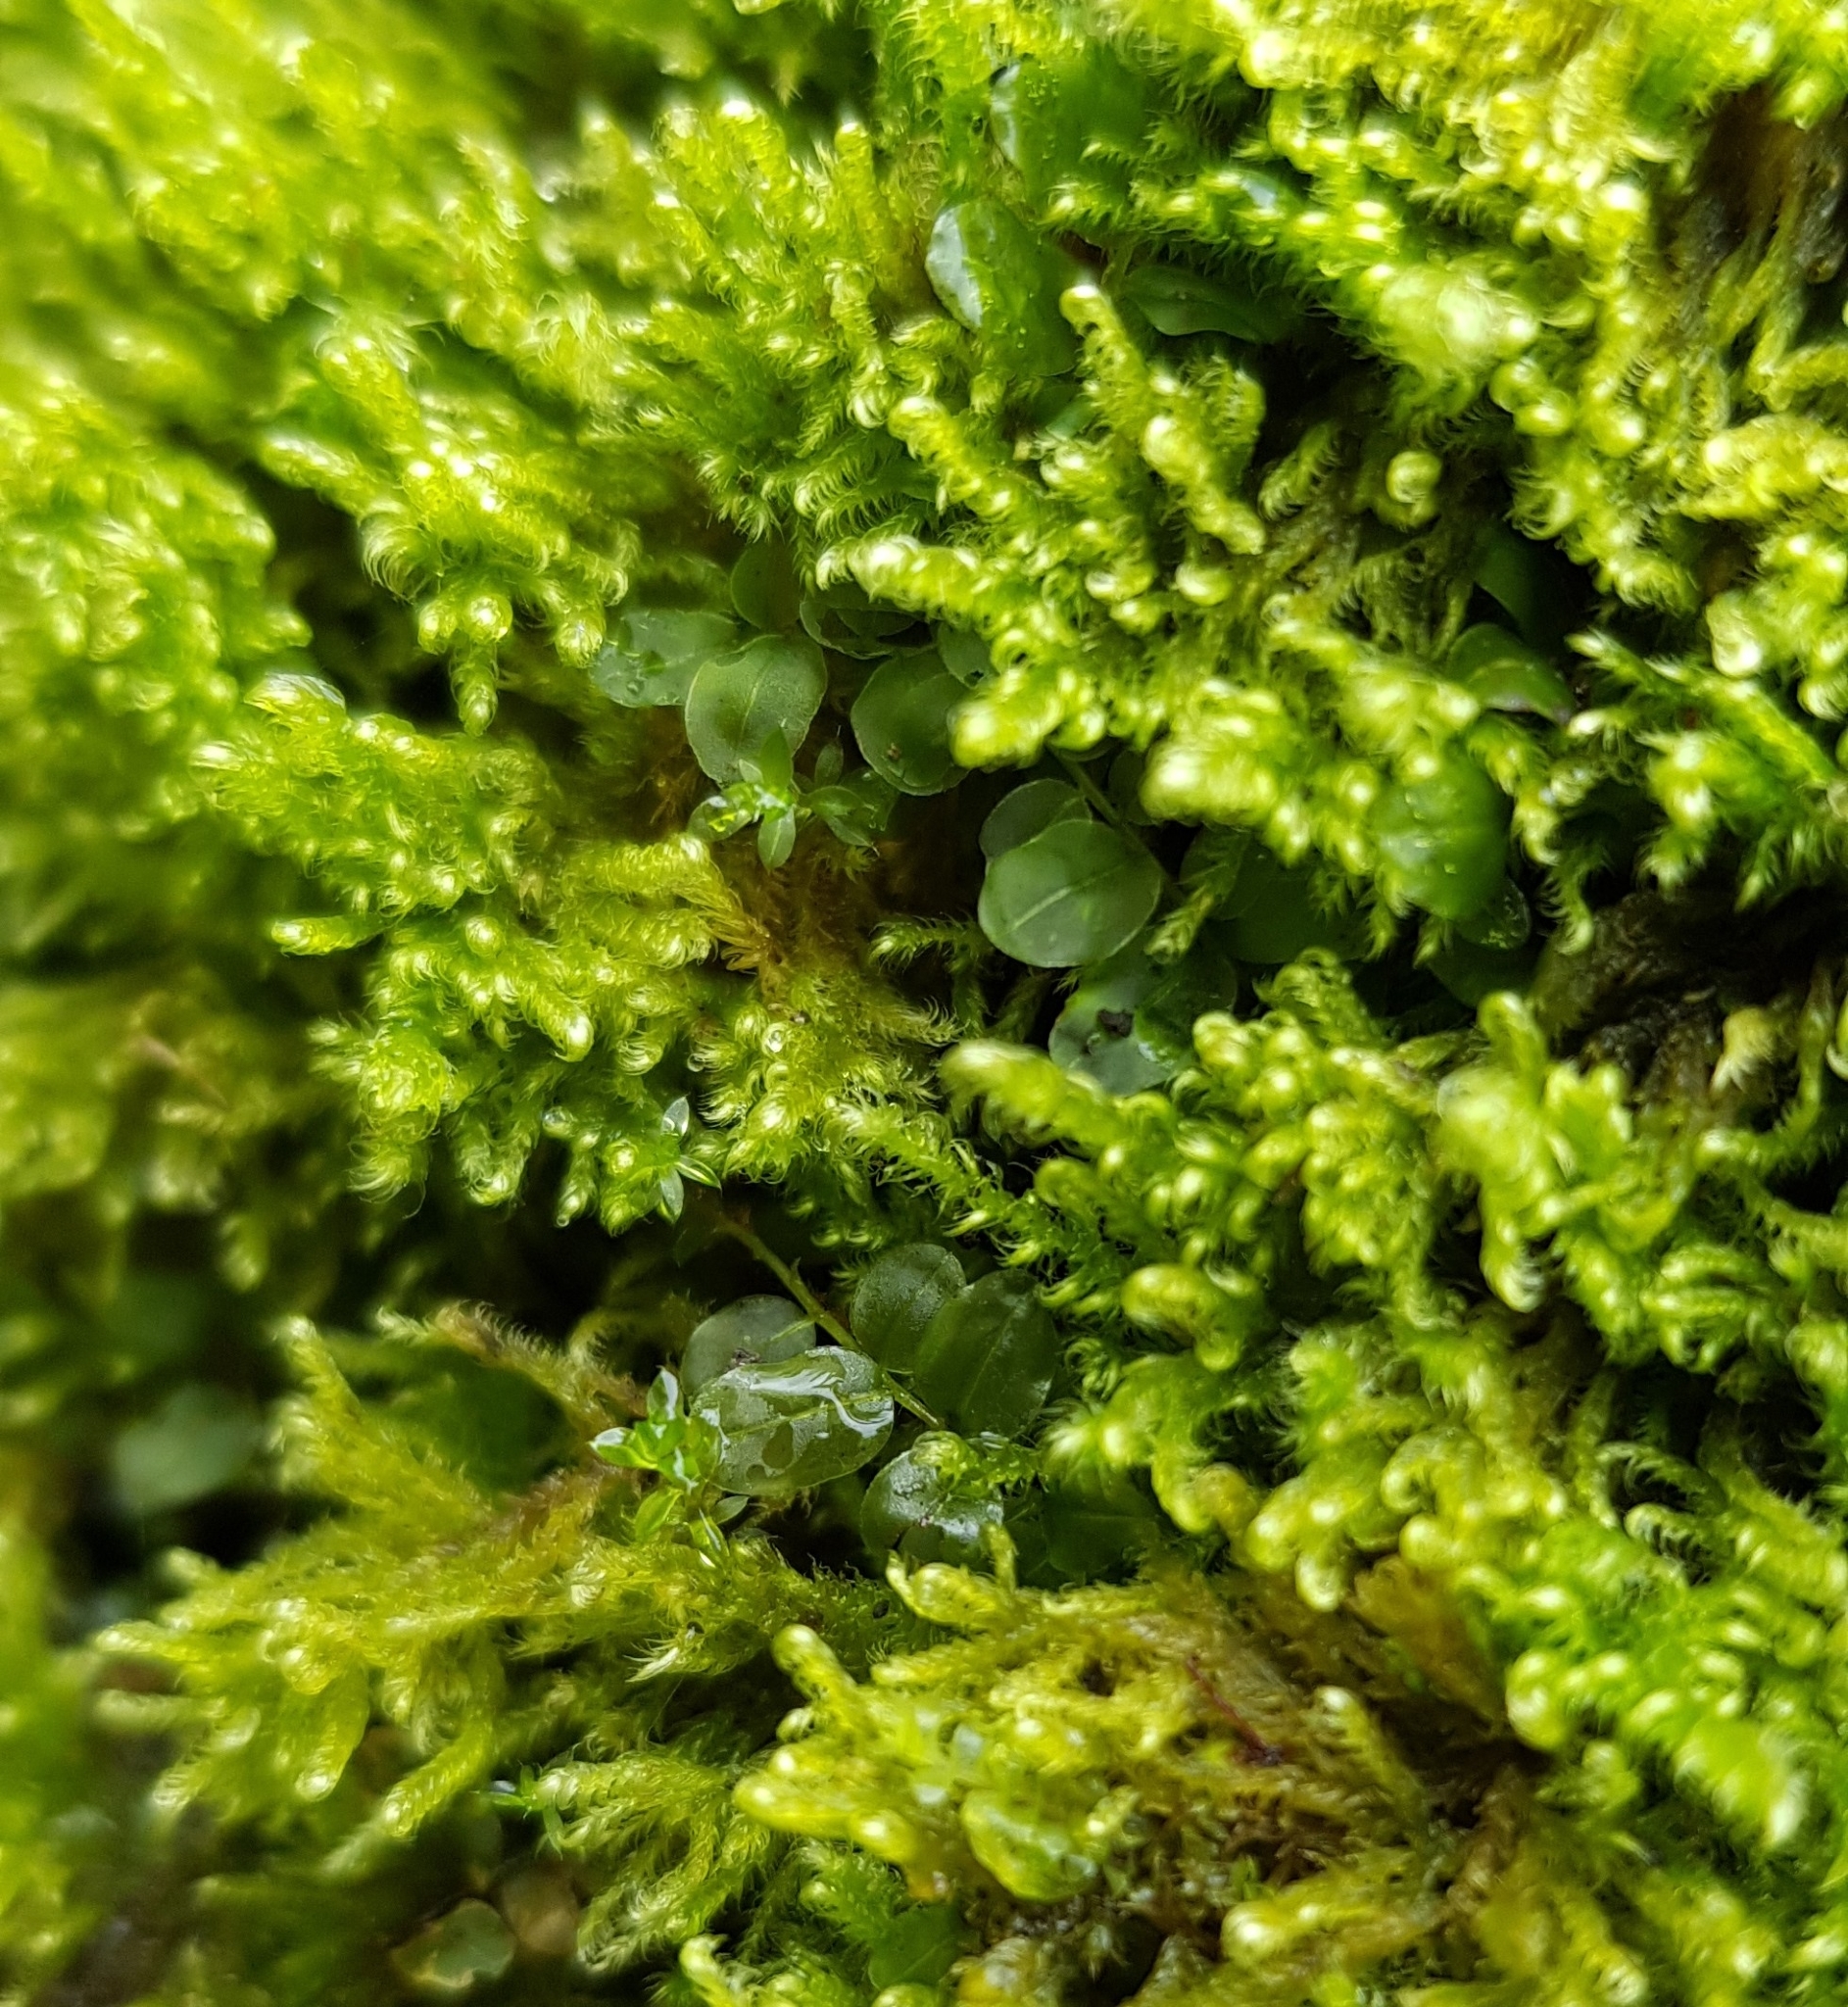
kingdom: Plantae
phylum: Bryophyta
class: Bryopsida
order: Bryales
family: Mniaceae
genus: Rhizomnium
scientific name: Rhizomnium punctatum
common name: Dotted leafy moss
